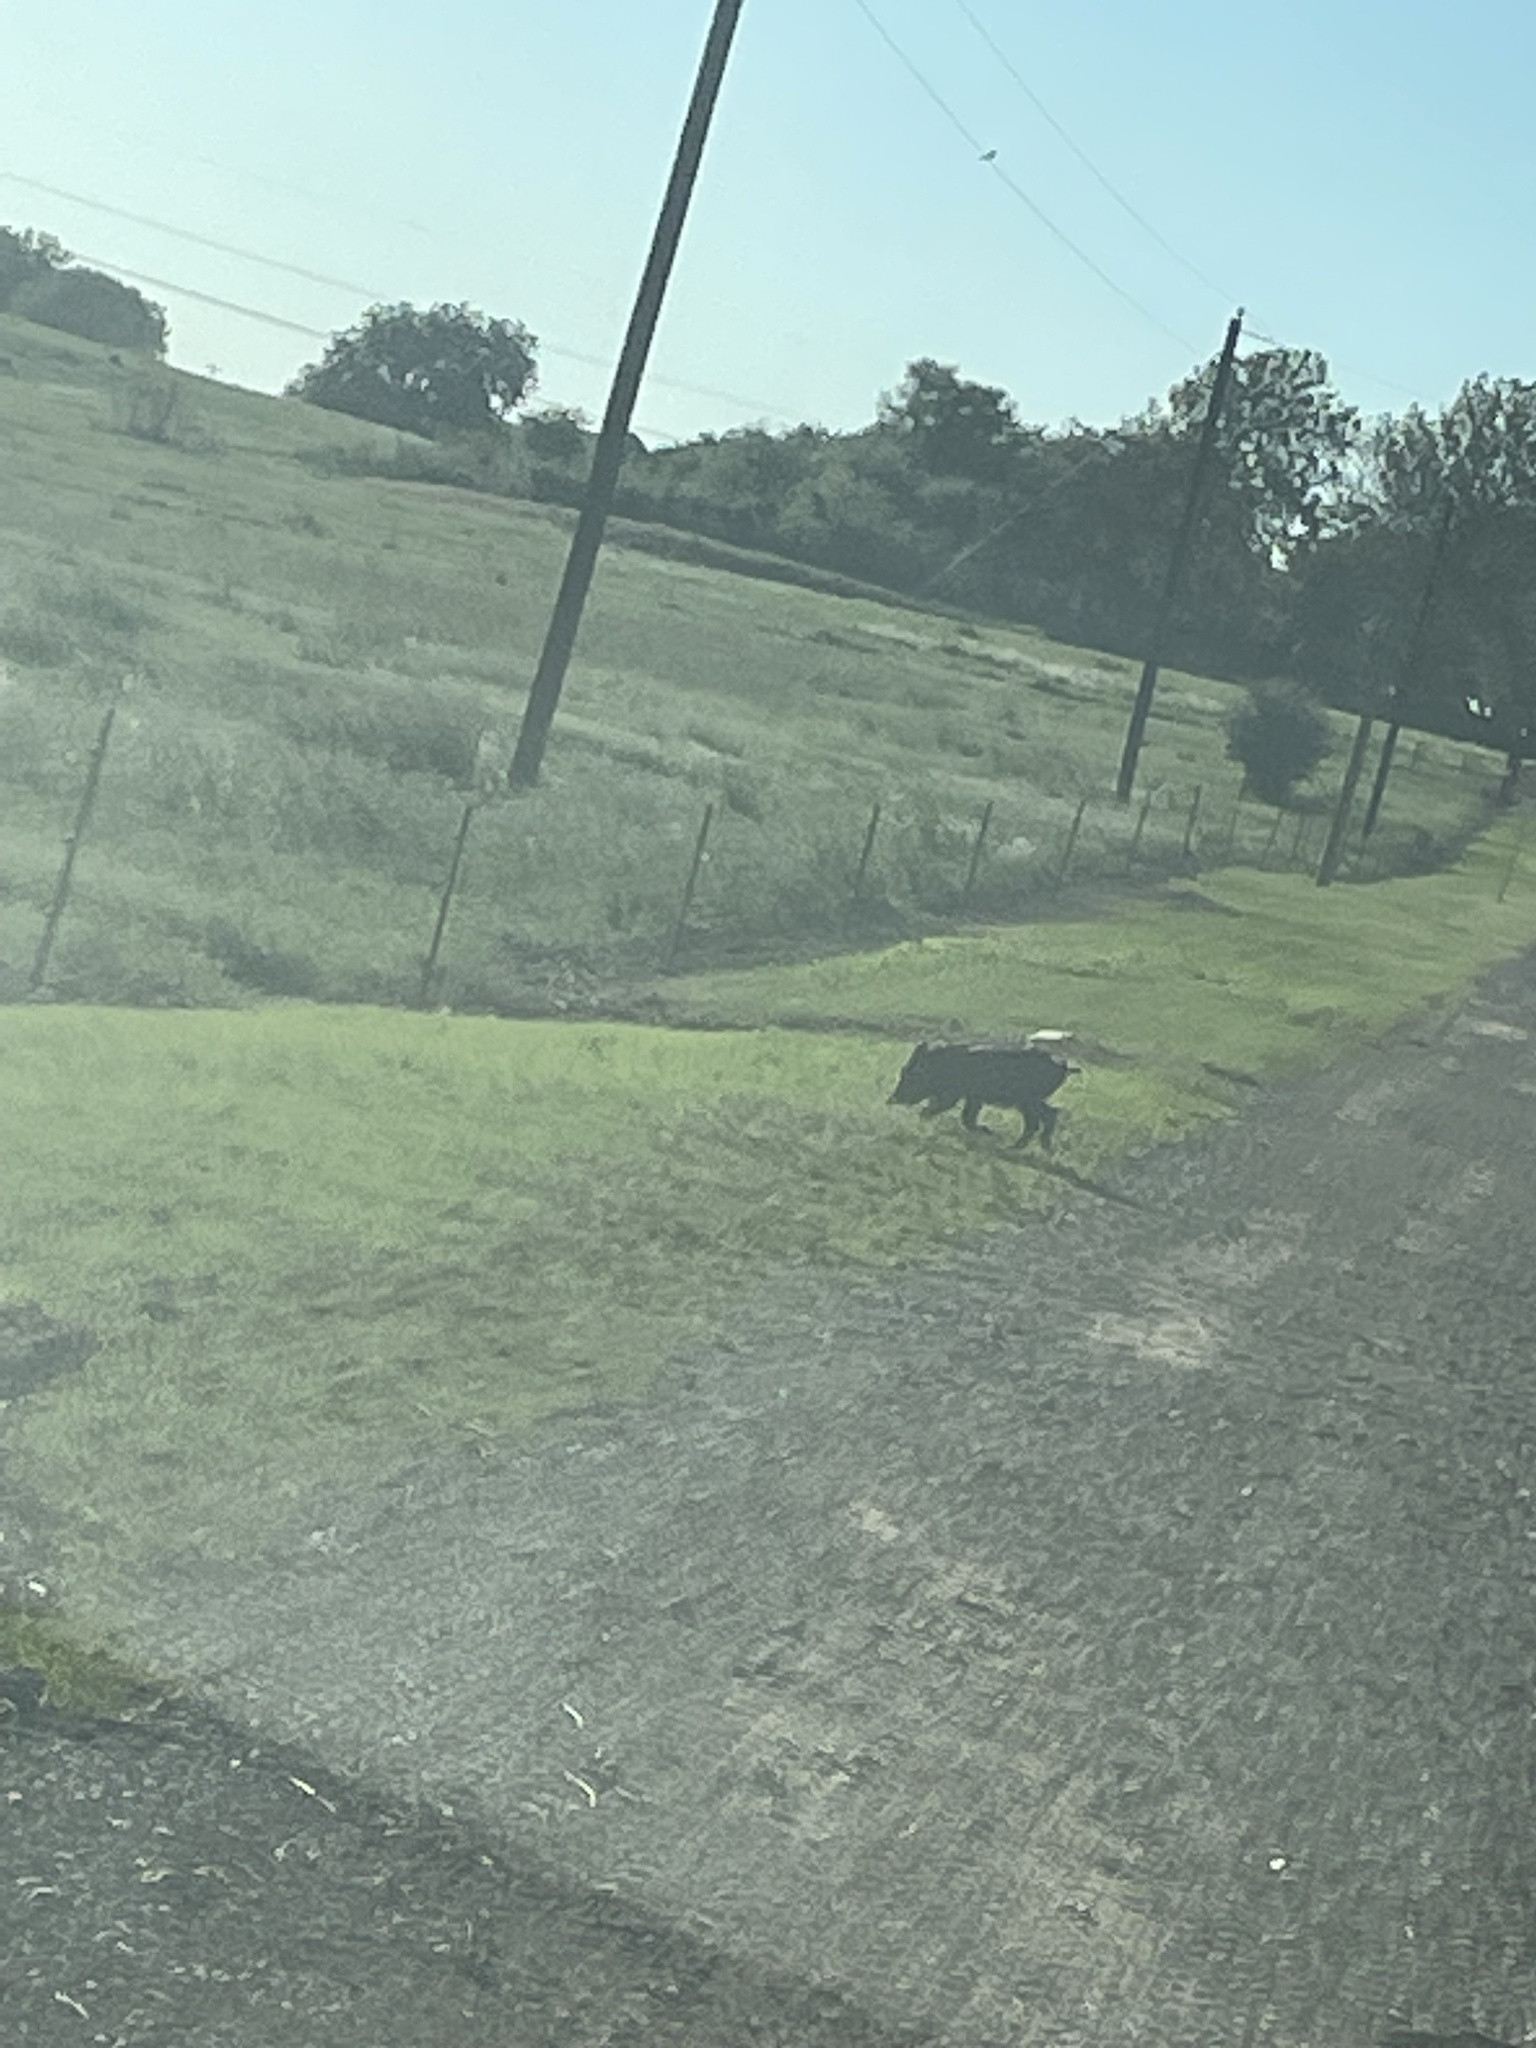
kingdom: Animalia
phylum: Chordata
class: Mammalia
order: Artiodactyla
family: Suidae
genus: Sus
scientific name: Sus scrofa
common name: Wild boar
